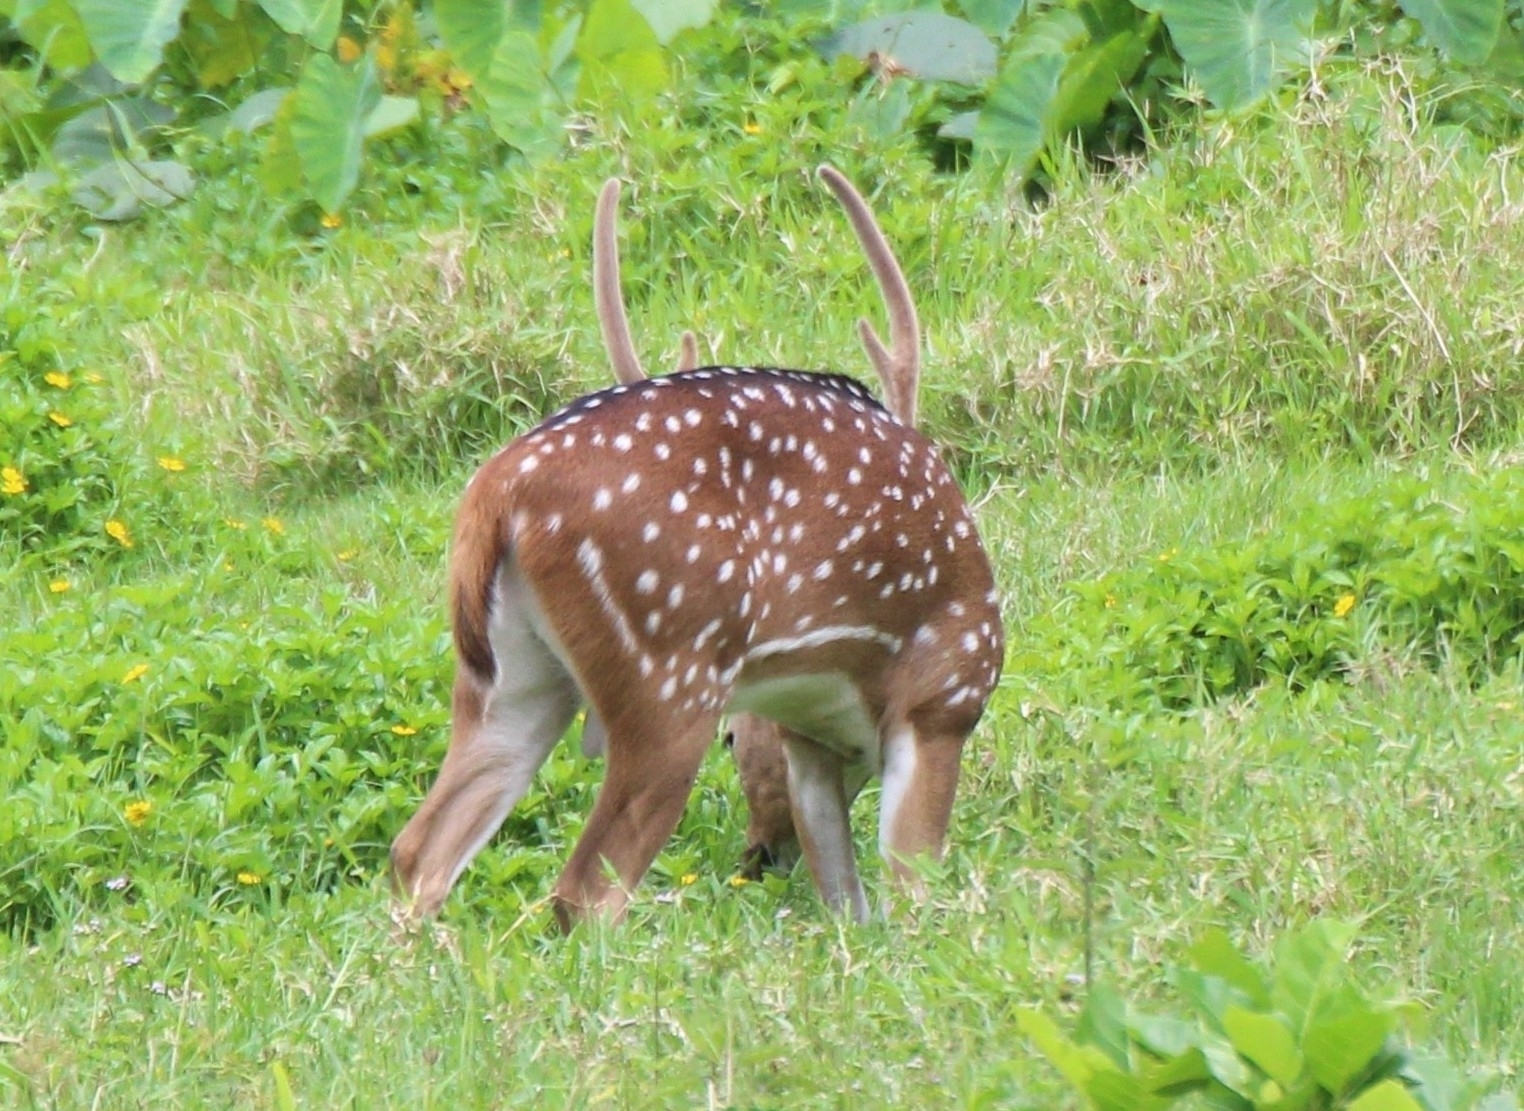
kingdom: Animalia
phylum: Chordata
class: Mammalia
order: Artiodactyla
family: Cervidae
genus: Axis
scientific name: Axis axis
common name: Chital
